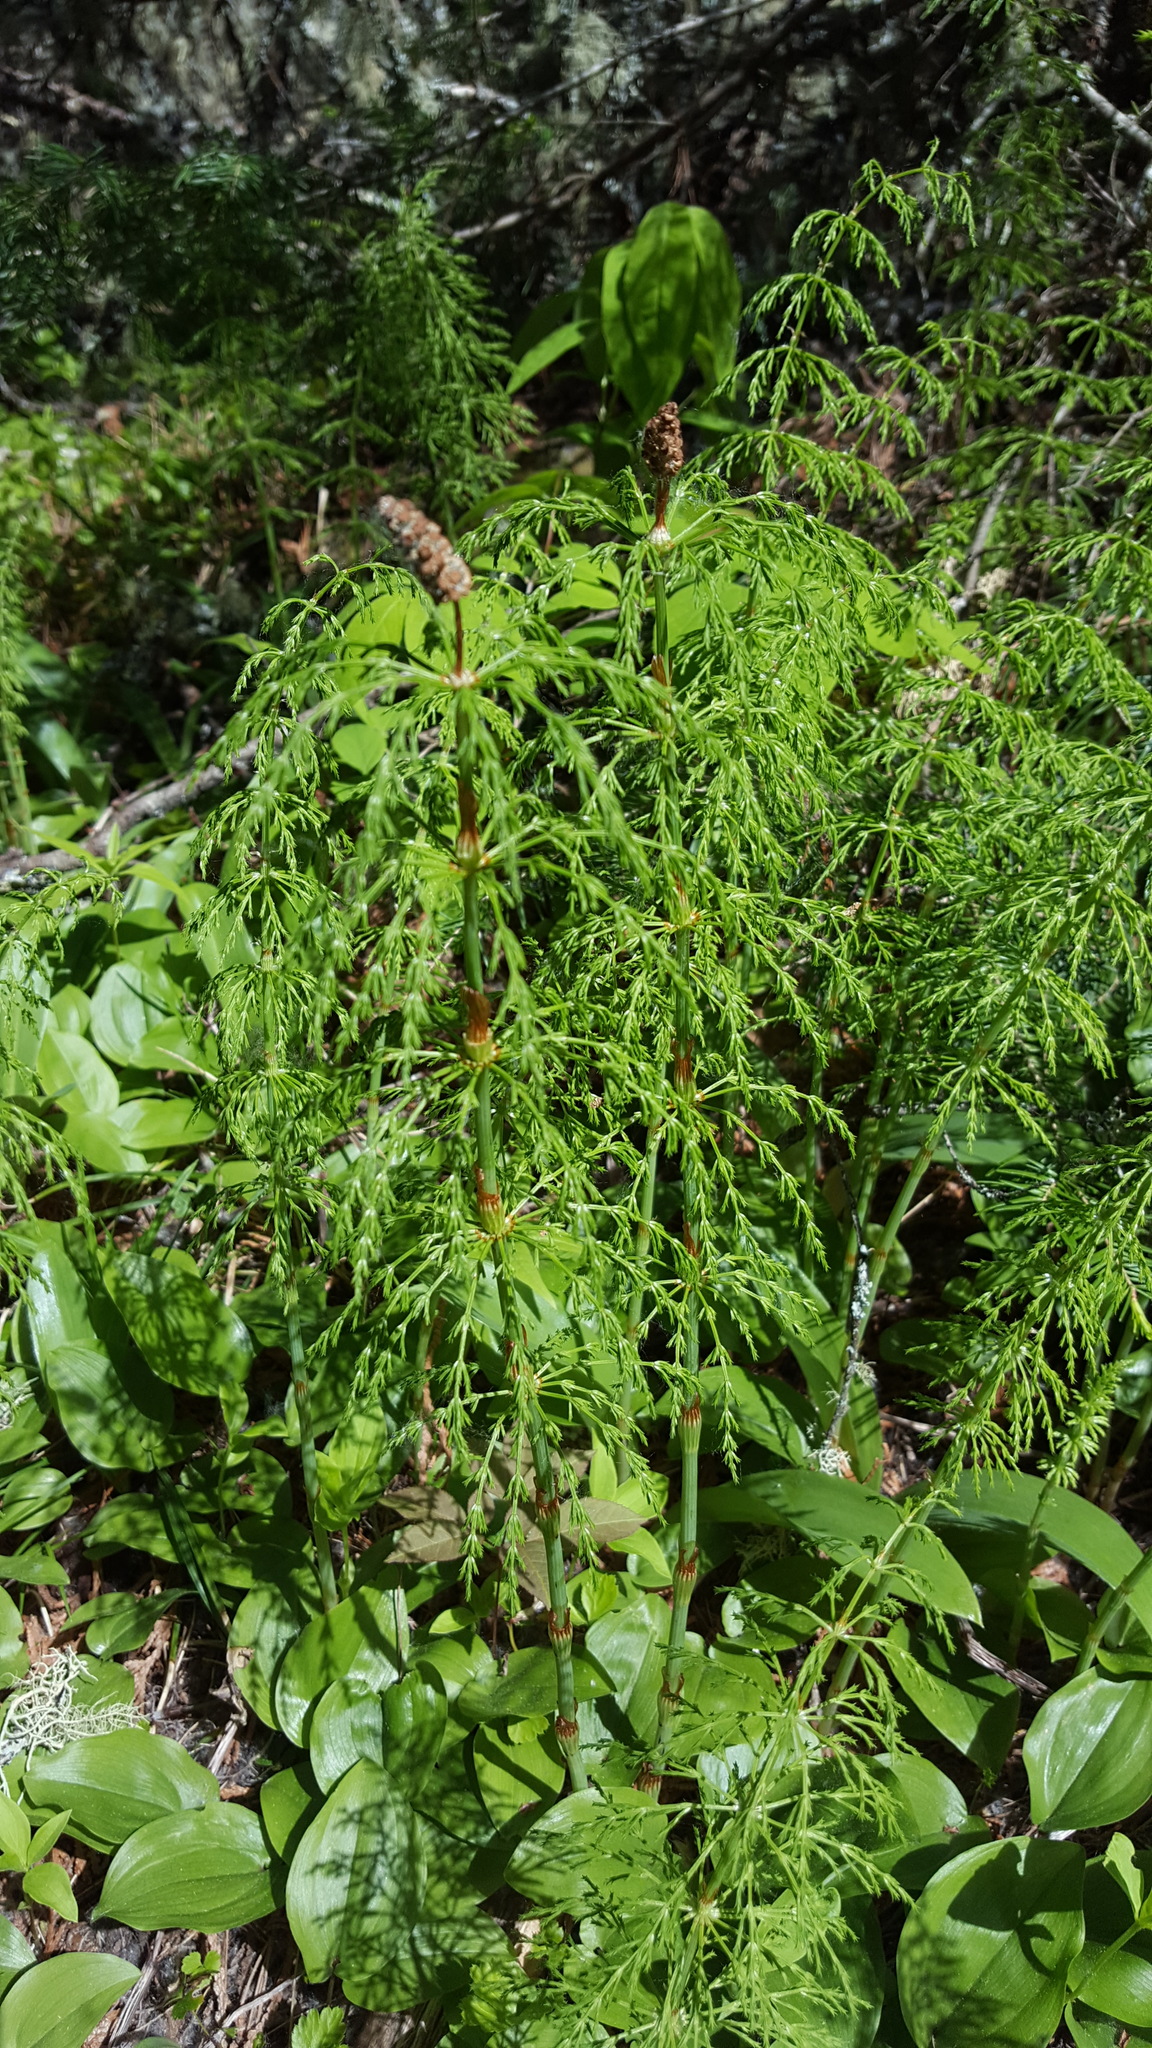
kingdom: Plantae
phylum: Tracheophyta
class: Polypodiopsida
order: Equisetales
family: Equisetaceae
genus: Equisetum
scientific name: Equisetum sylvaticum
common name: Wood horsetail
